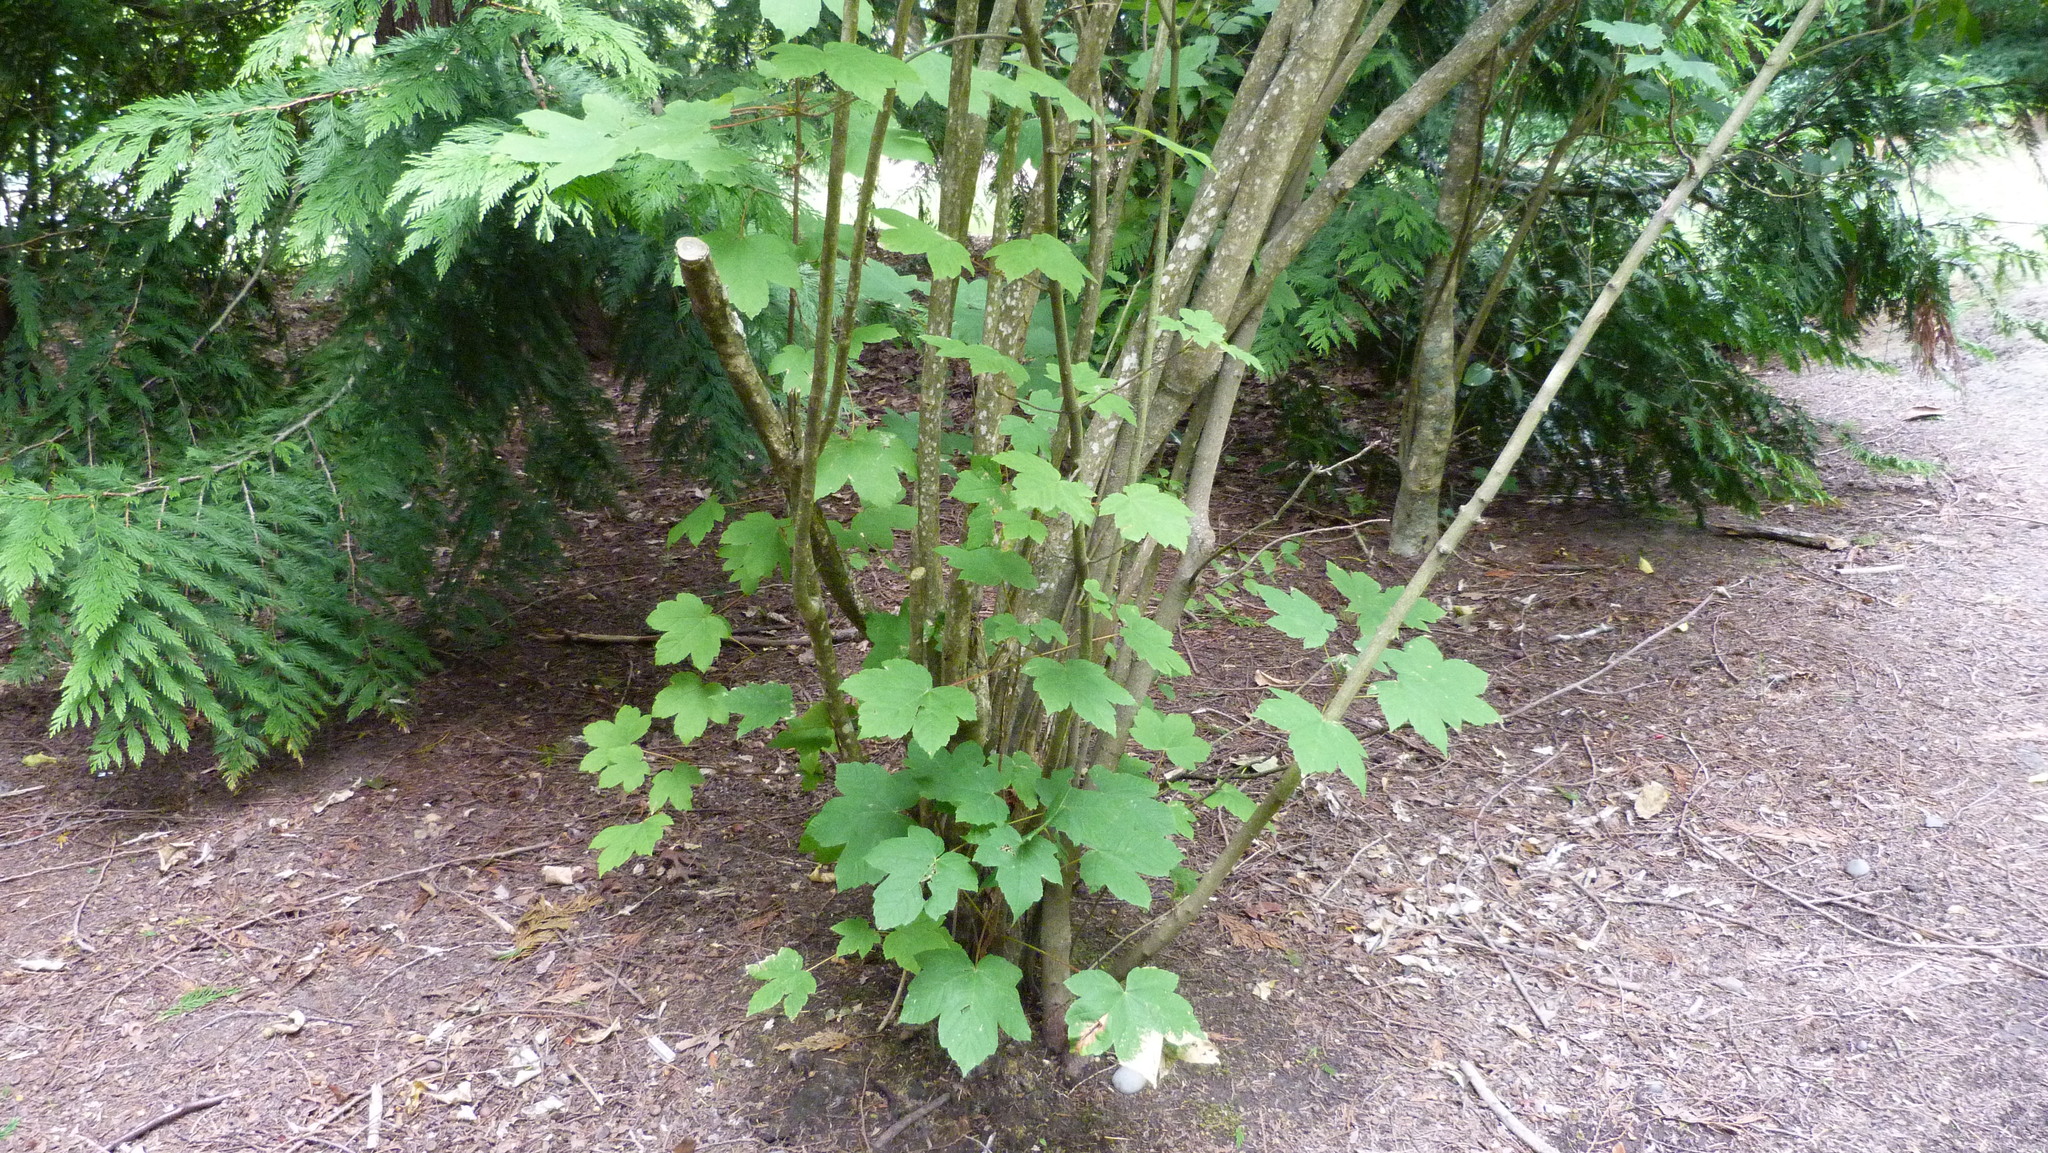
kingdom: Plantae
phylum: Tracheophyta
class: Magnoliopsida
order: Sapindales
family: Sapindaceae
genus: Acer
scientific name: Acer pseudoplatanus
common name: Sycamore
